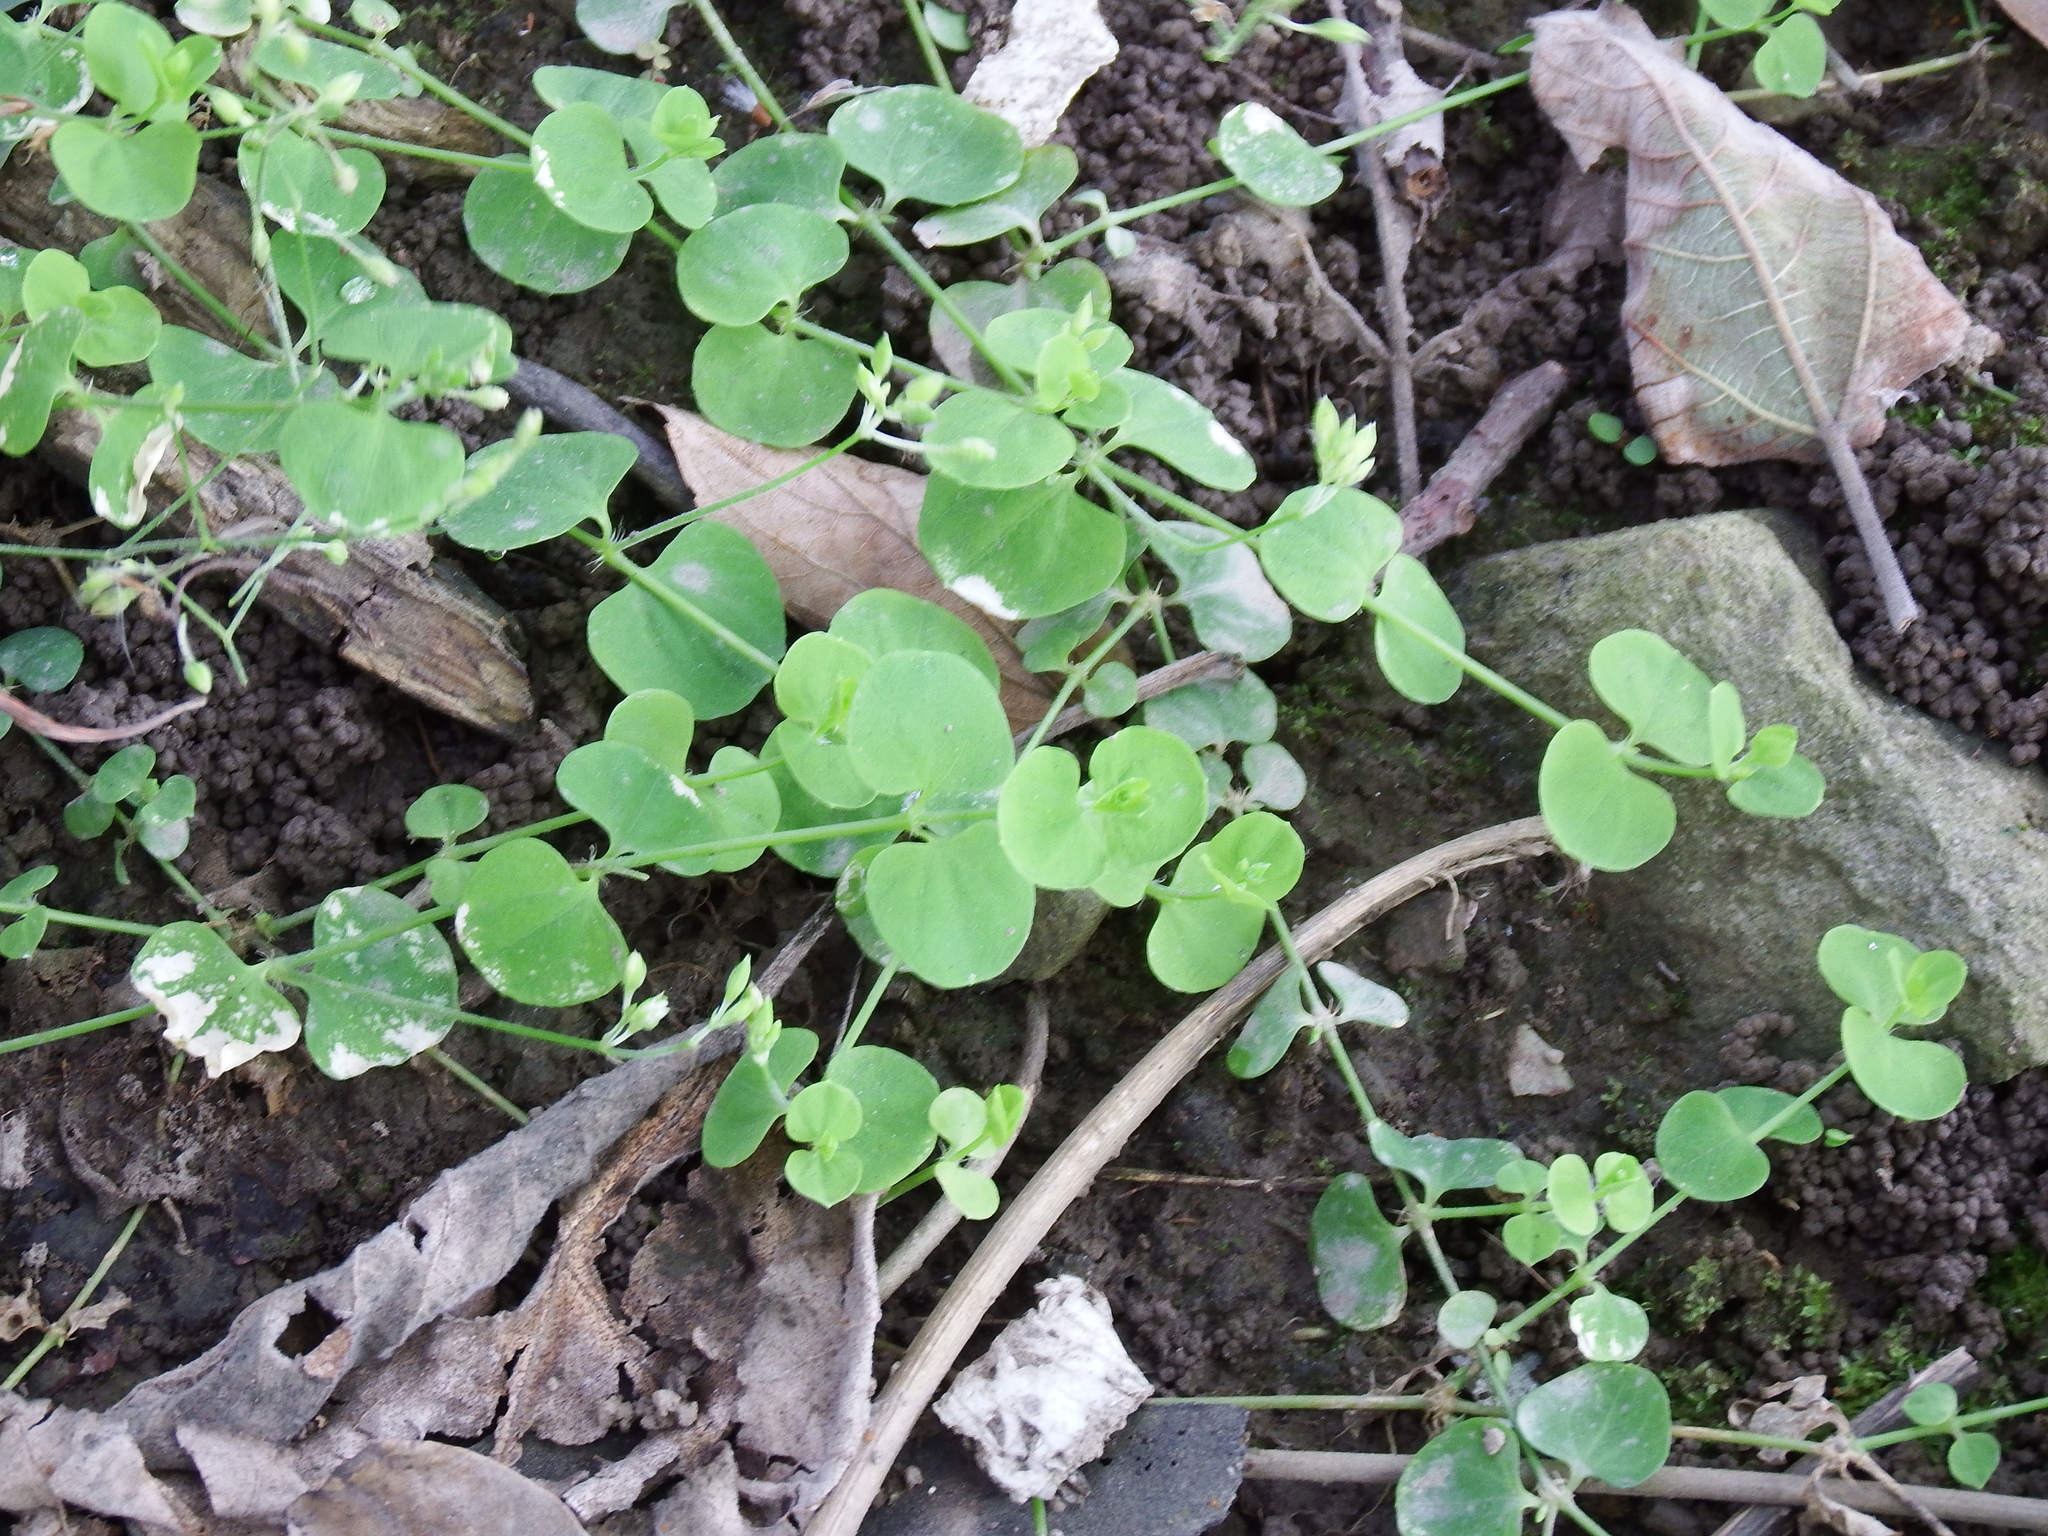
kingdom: Plantae
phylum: Tracheophyta
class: Magnoliopsida
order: Caryophyllales
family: Caryophyllaceae
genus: Drymaria
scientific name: Drymaria cordata
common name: Whitesnow
